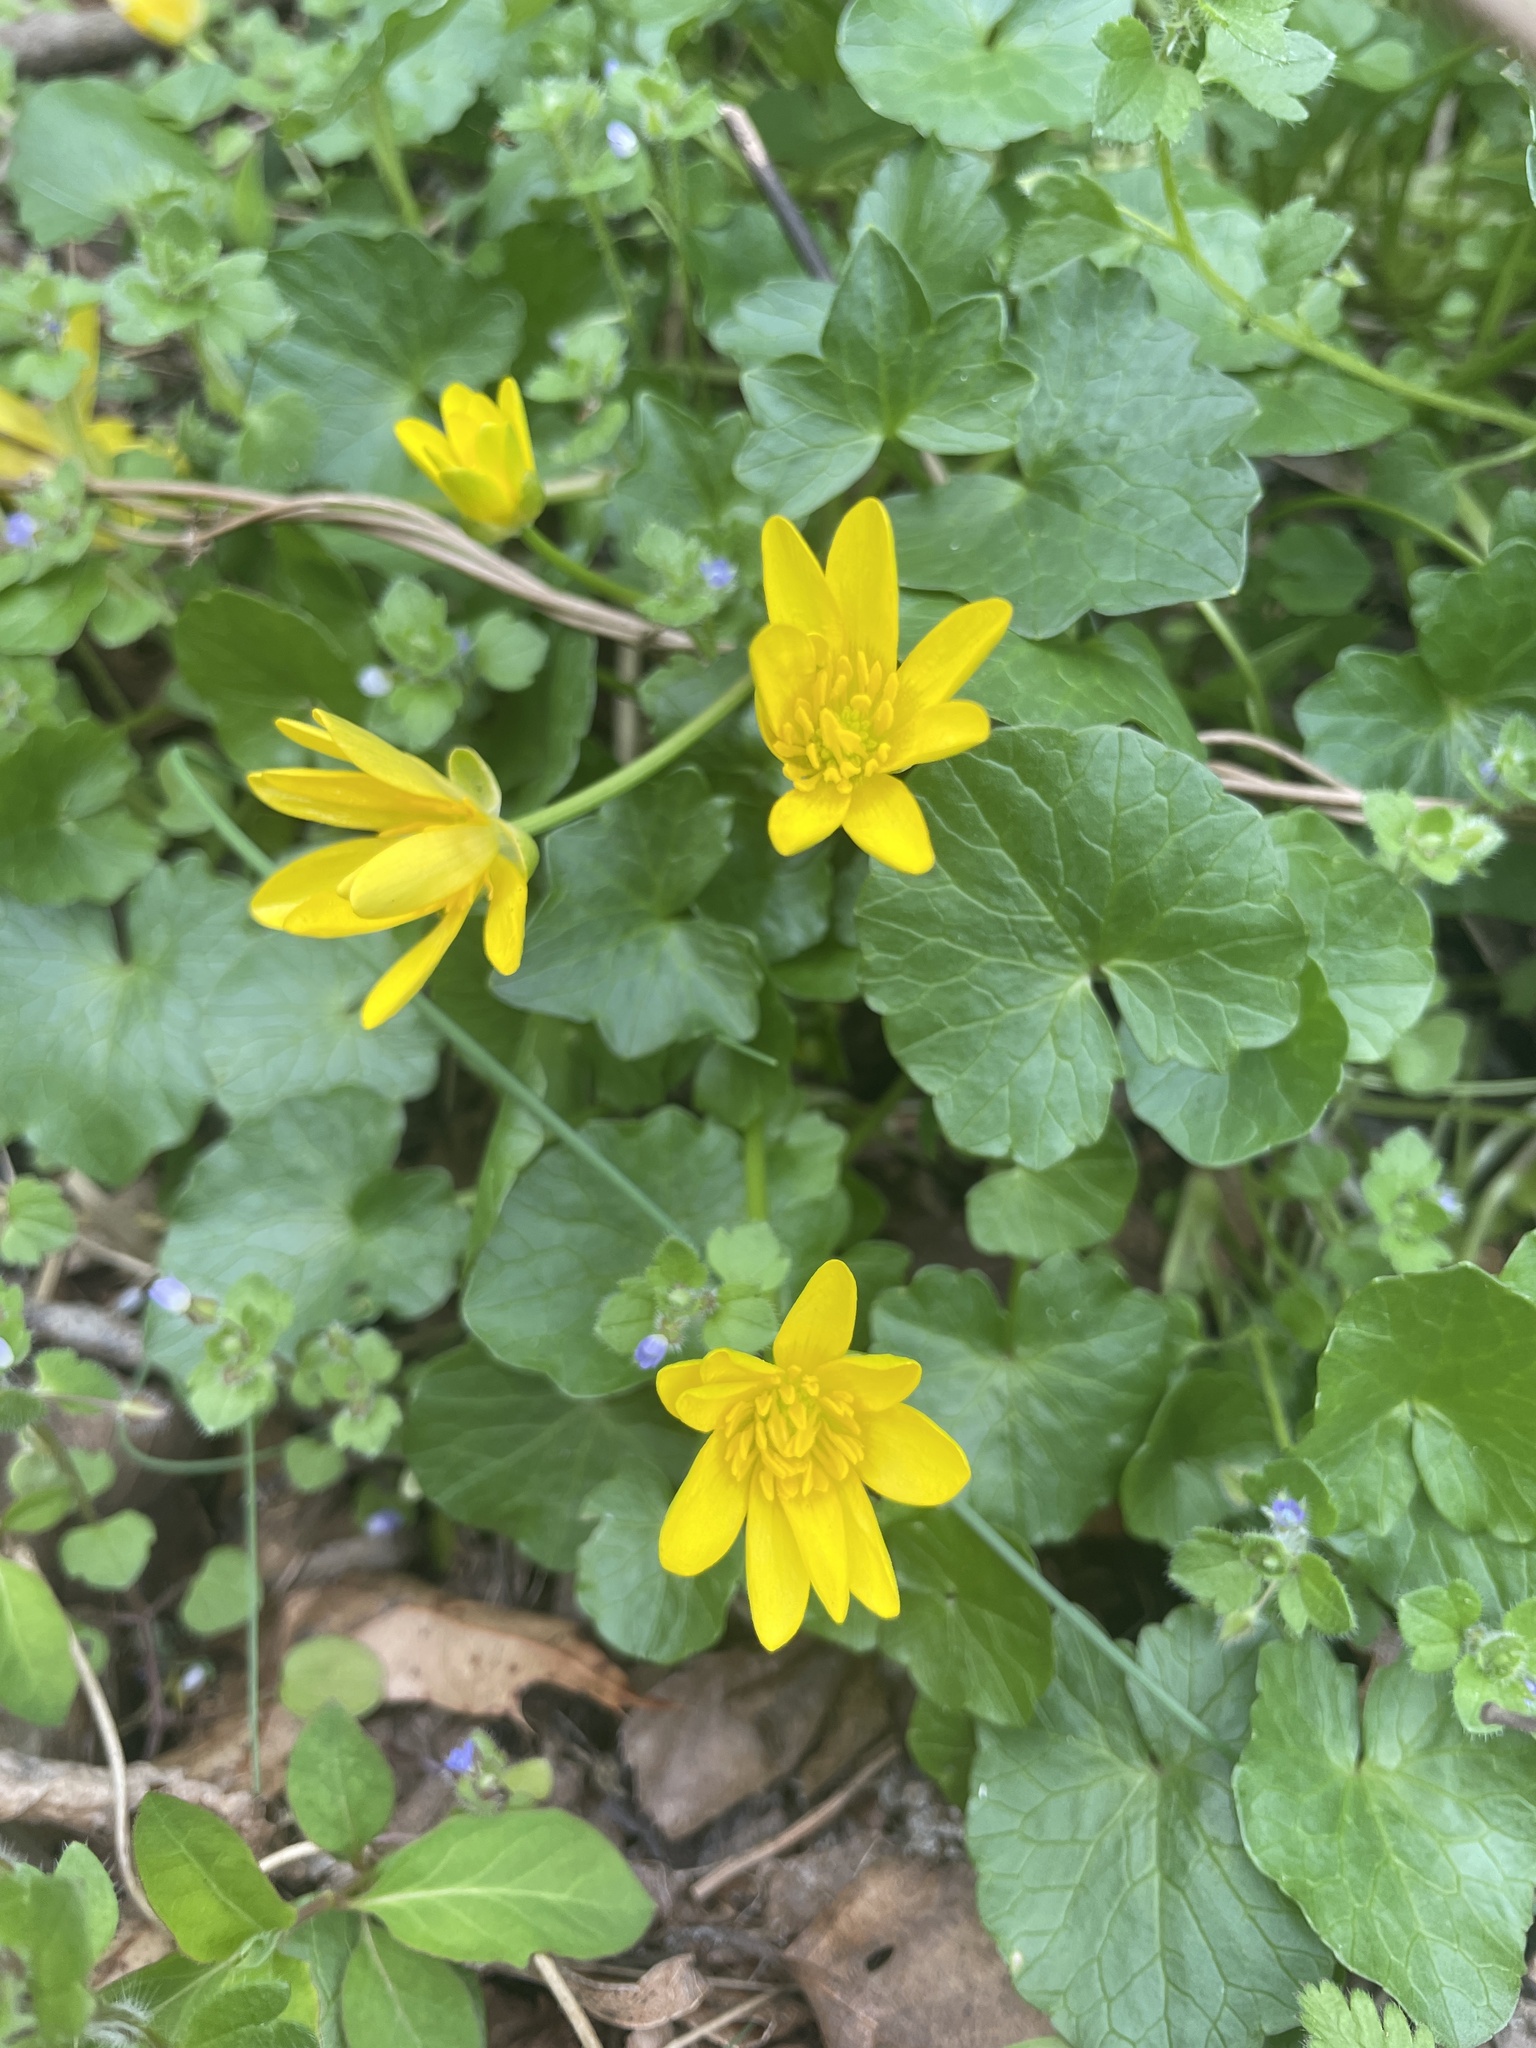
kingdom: Plantae
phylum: Tracheophyta
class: Magnoliopsida
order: Ranunculales
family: Ranunculaceae
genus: Ficaria
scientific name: Ficaria verna
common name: Lesser celandine
